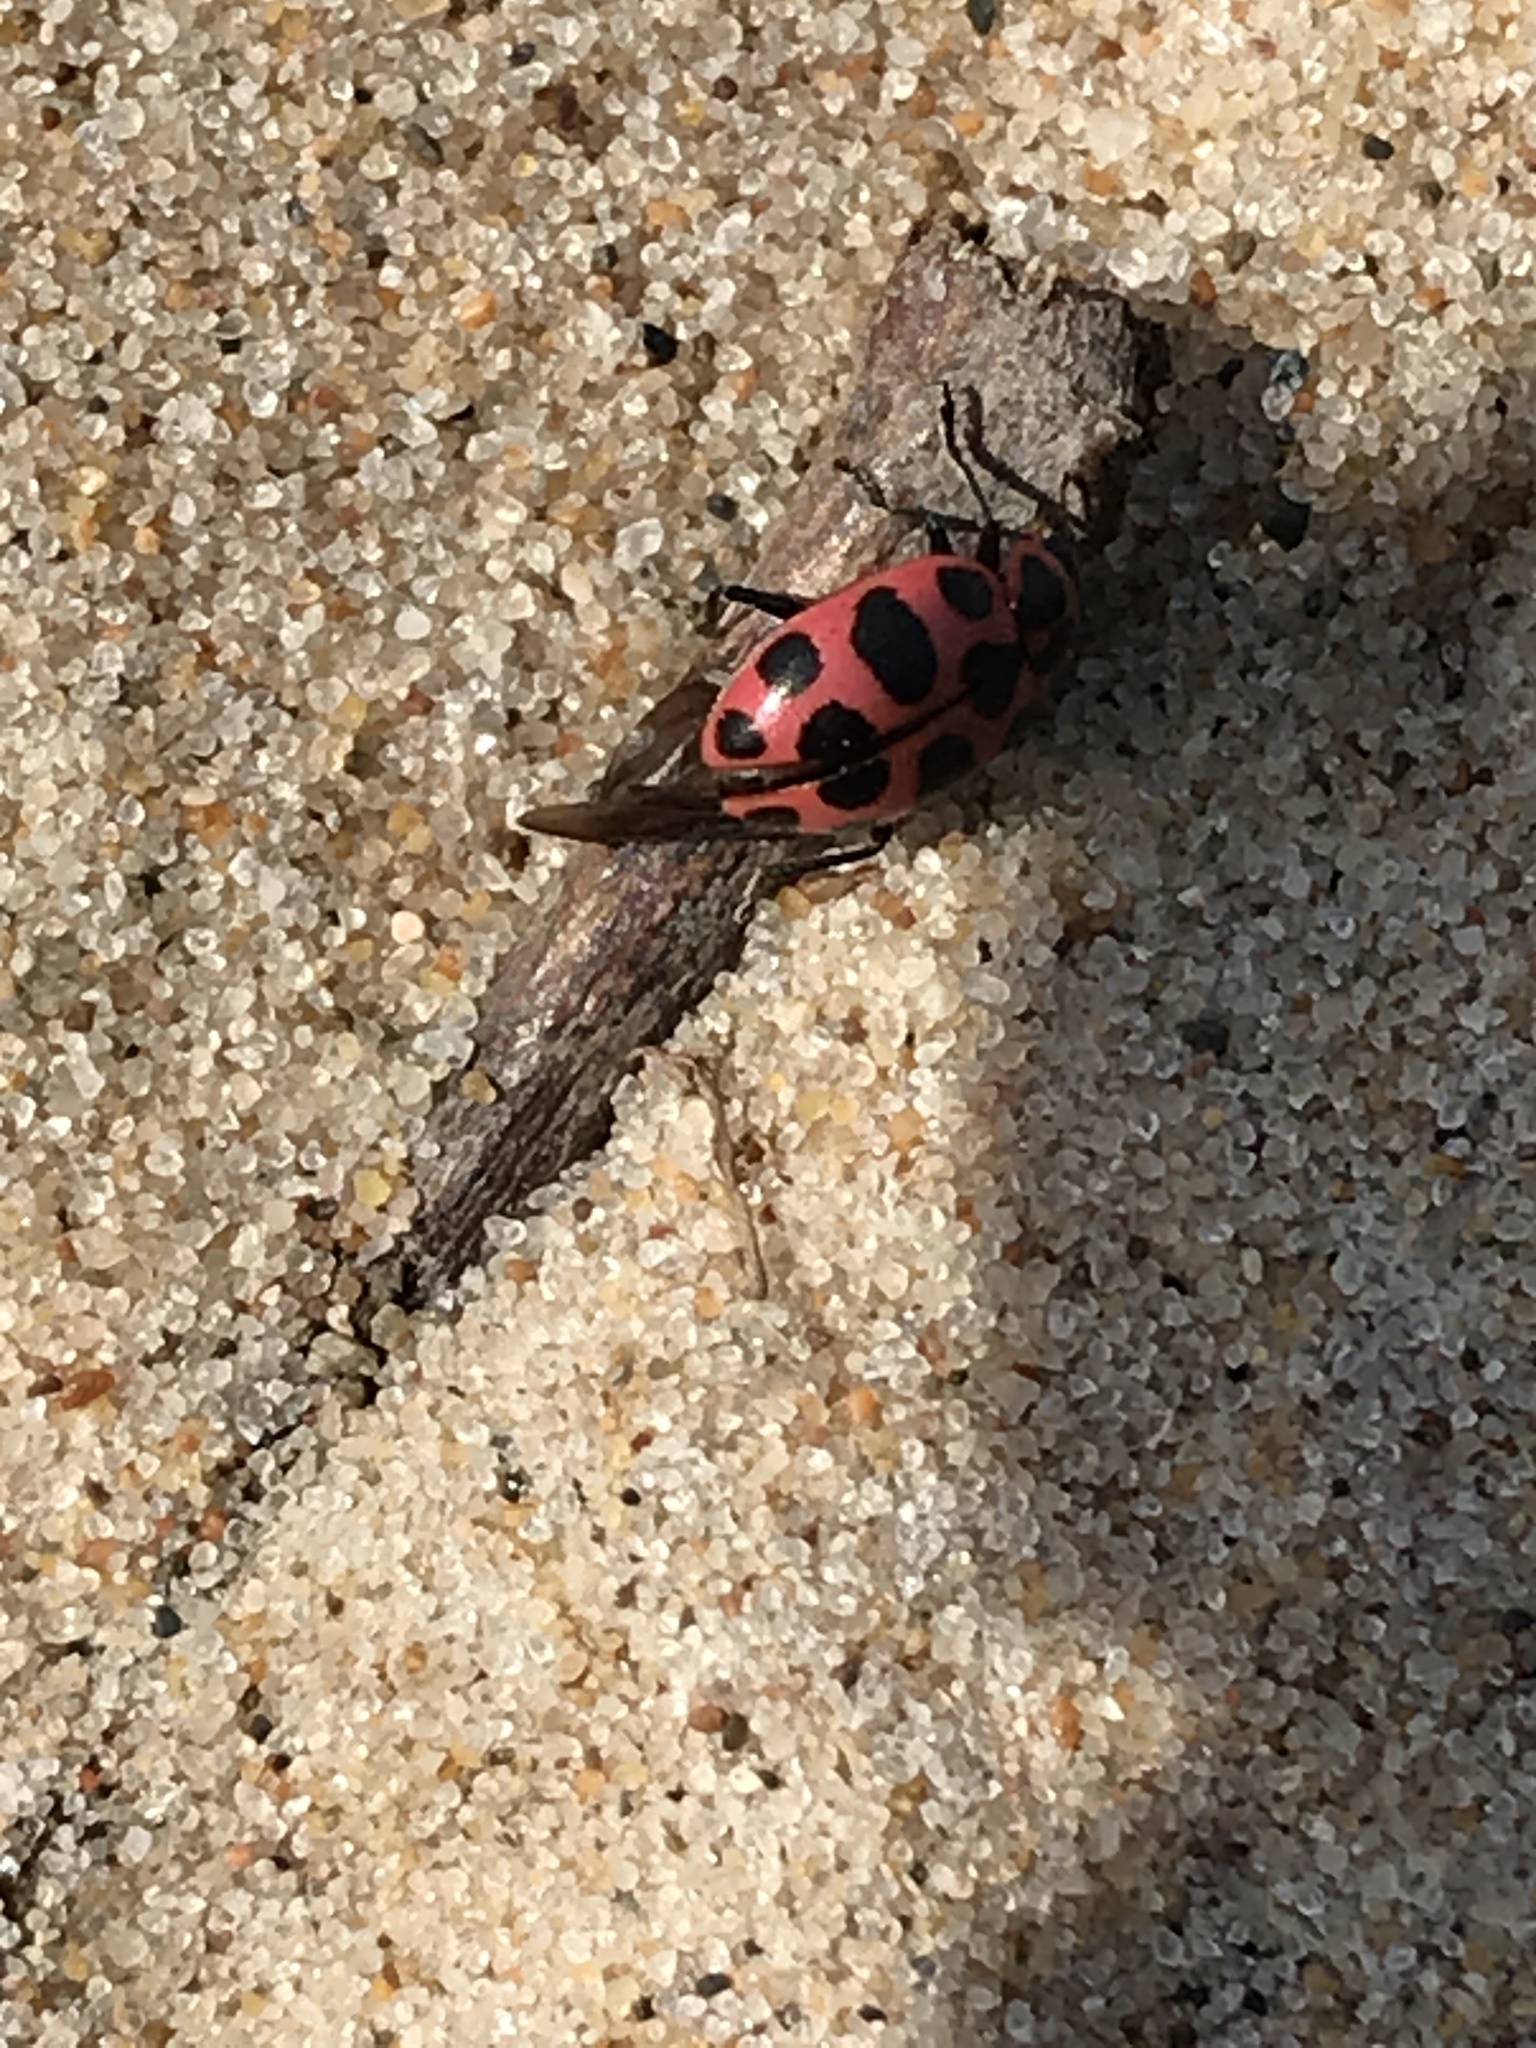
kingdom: Animalia
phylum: Arthropoda
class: Insecta
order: Coleoptera
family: Coccinellidae
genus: Coleomegilla
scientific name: Coleomegilla maculata
